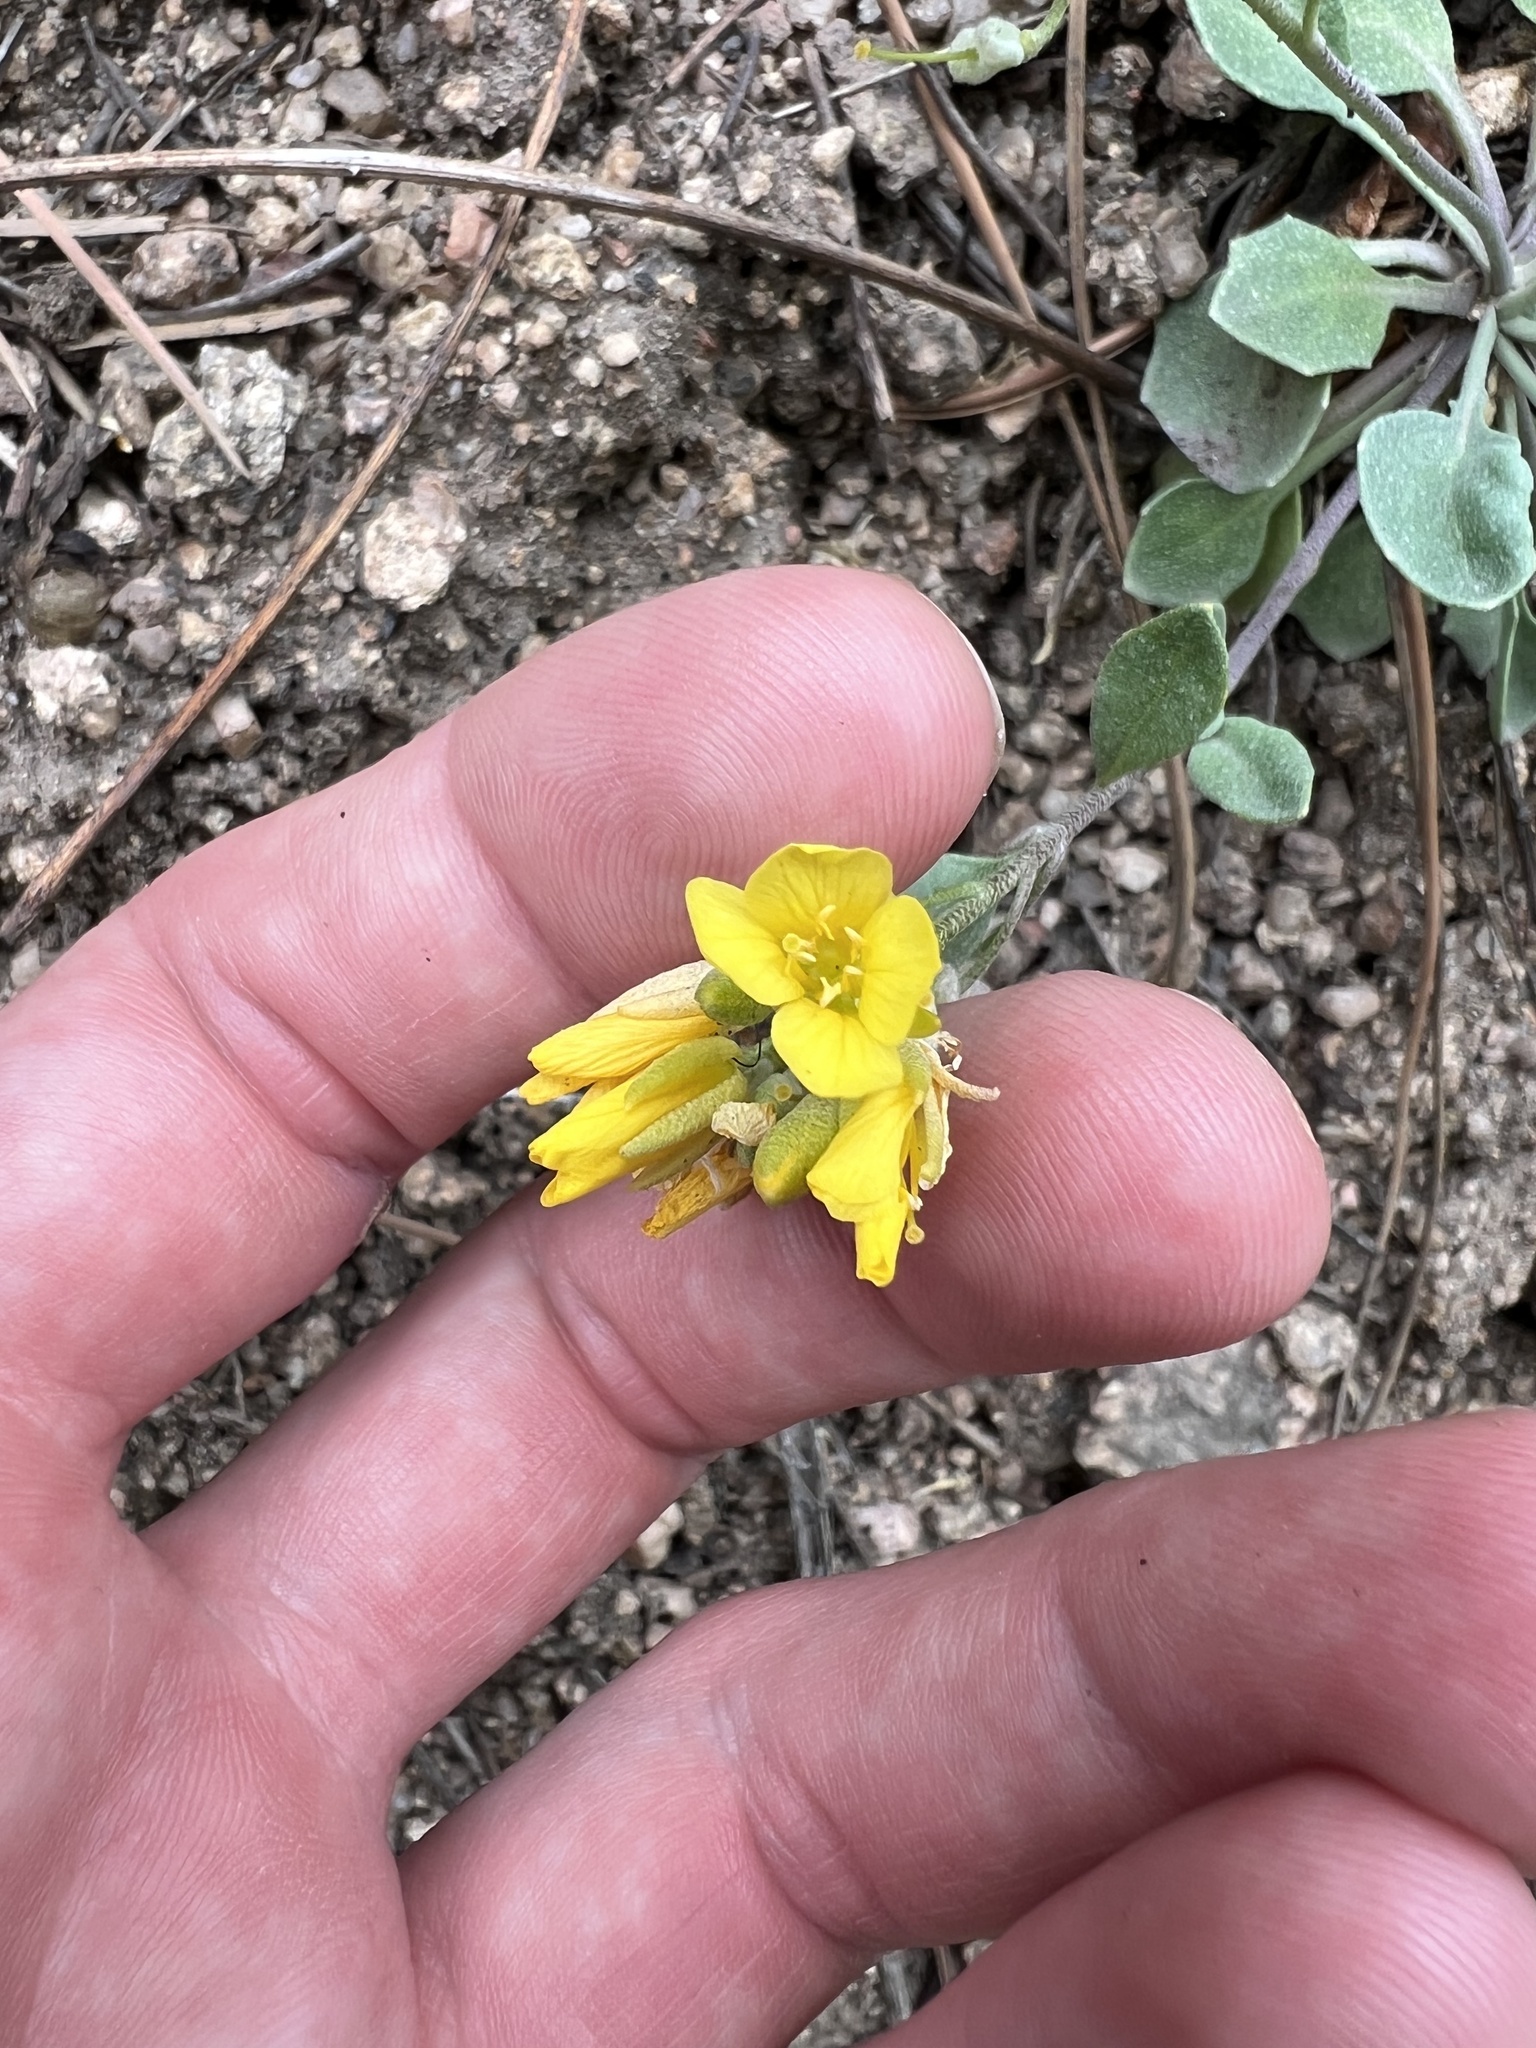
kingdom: Plantae
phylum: Tracheophyta
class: Magnoliopsida
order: Brassicales
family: Brassicaceae
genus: Physaria
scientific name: Physaria vitulifera
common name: Roundtrip twinpod
